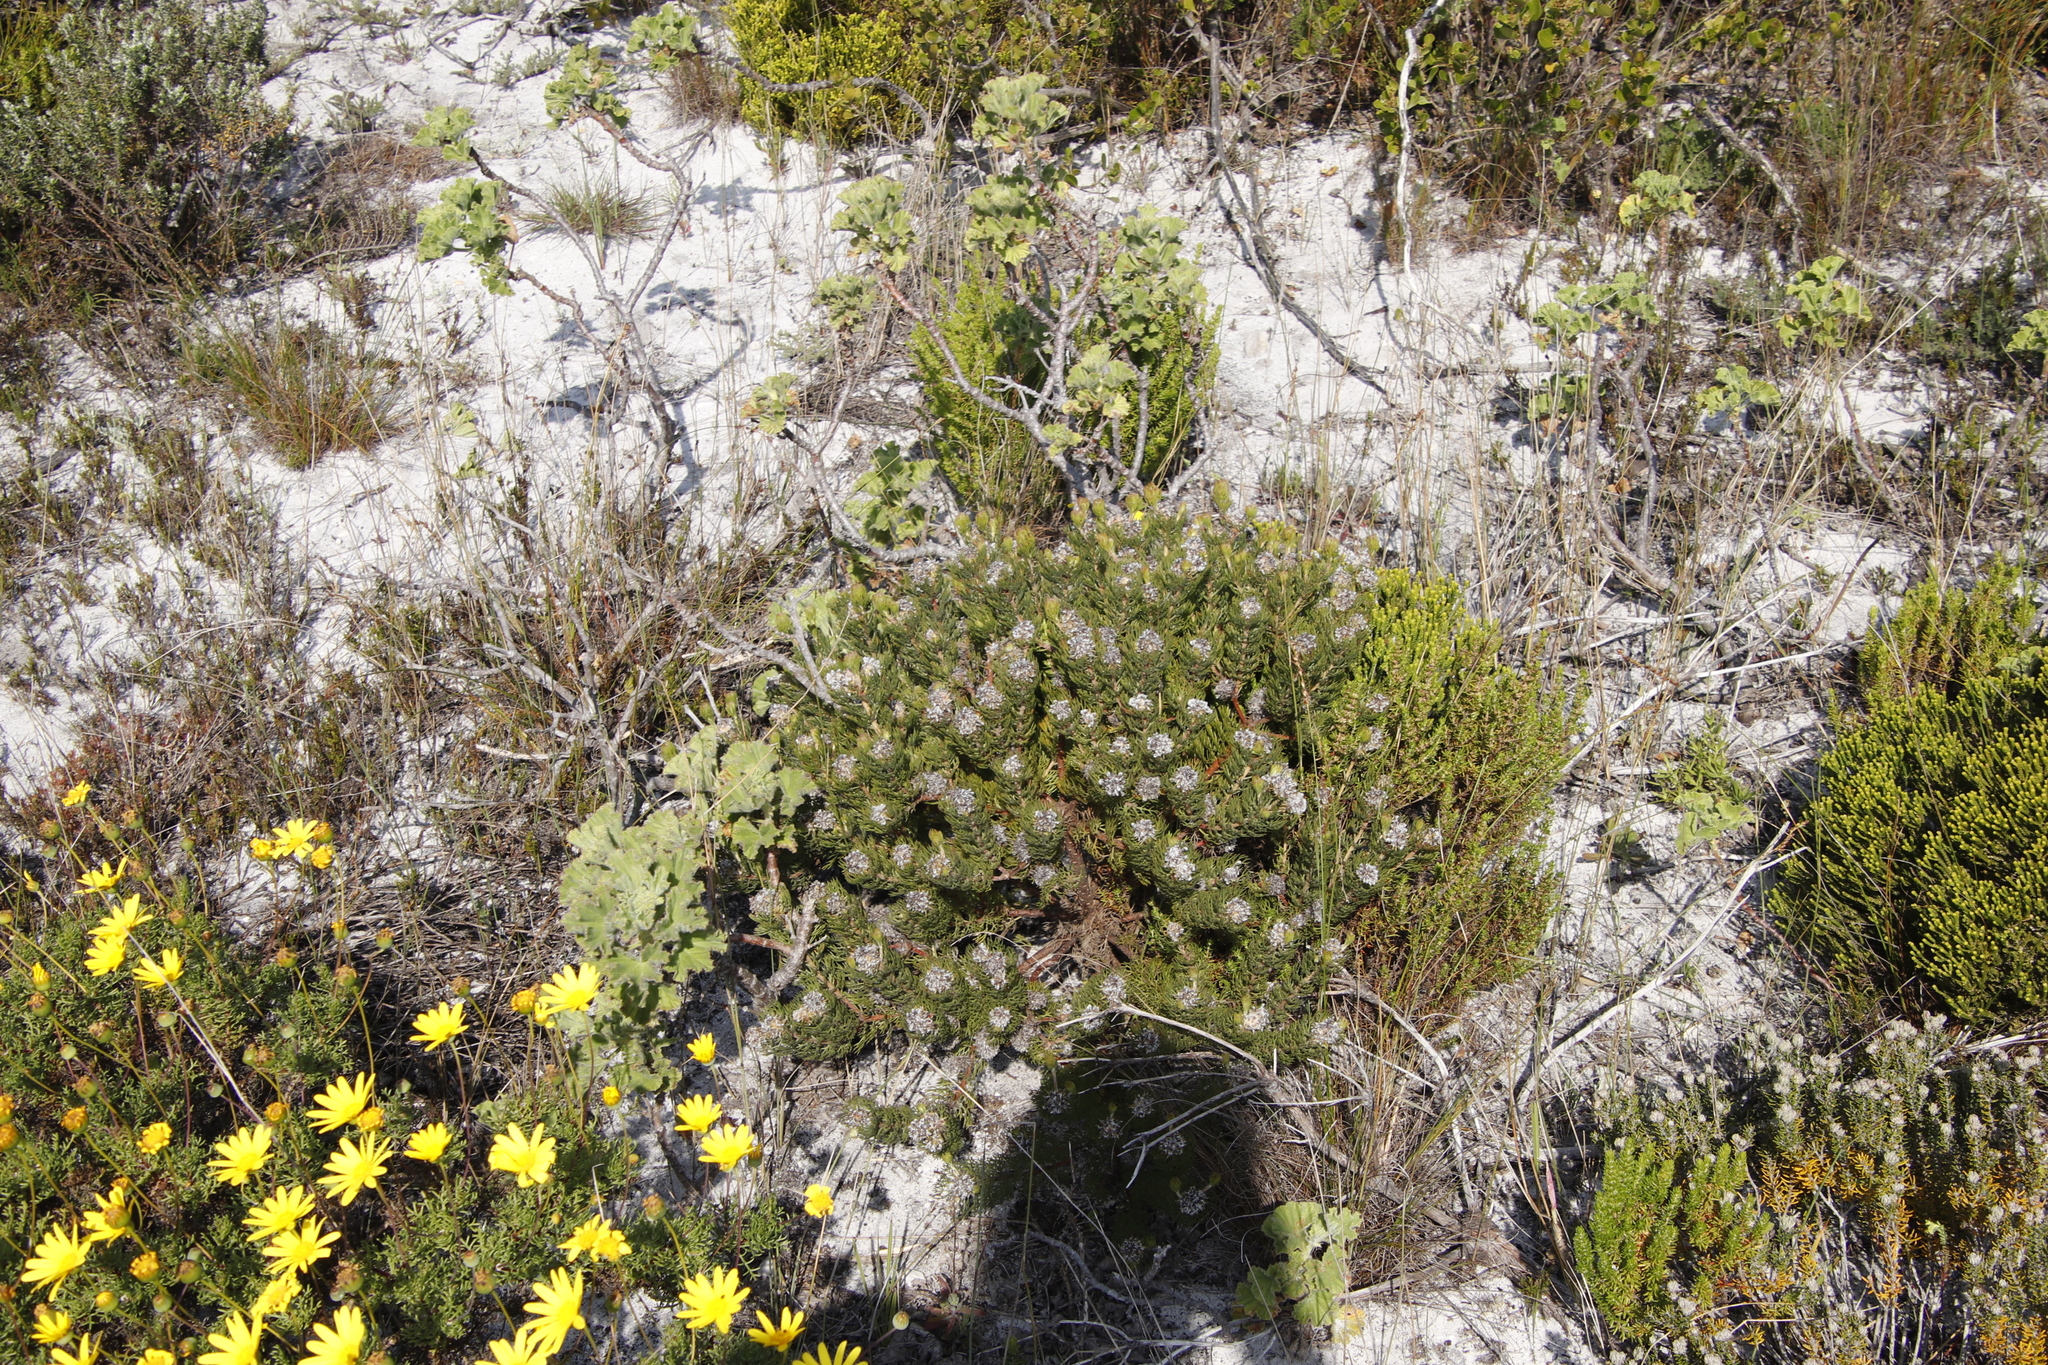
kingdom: Plantae
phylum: Tracheophyta
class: Magnoliopsida
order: Proteales
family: Proteaceae
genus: Serruria
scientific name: Serruria villosa
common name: Golden spiderhead
